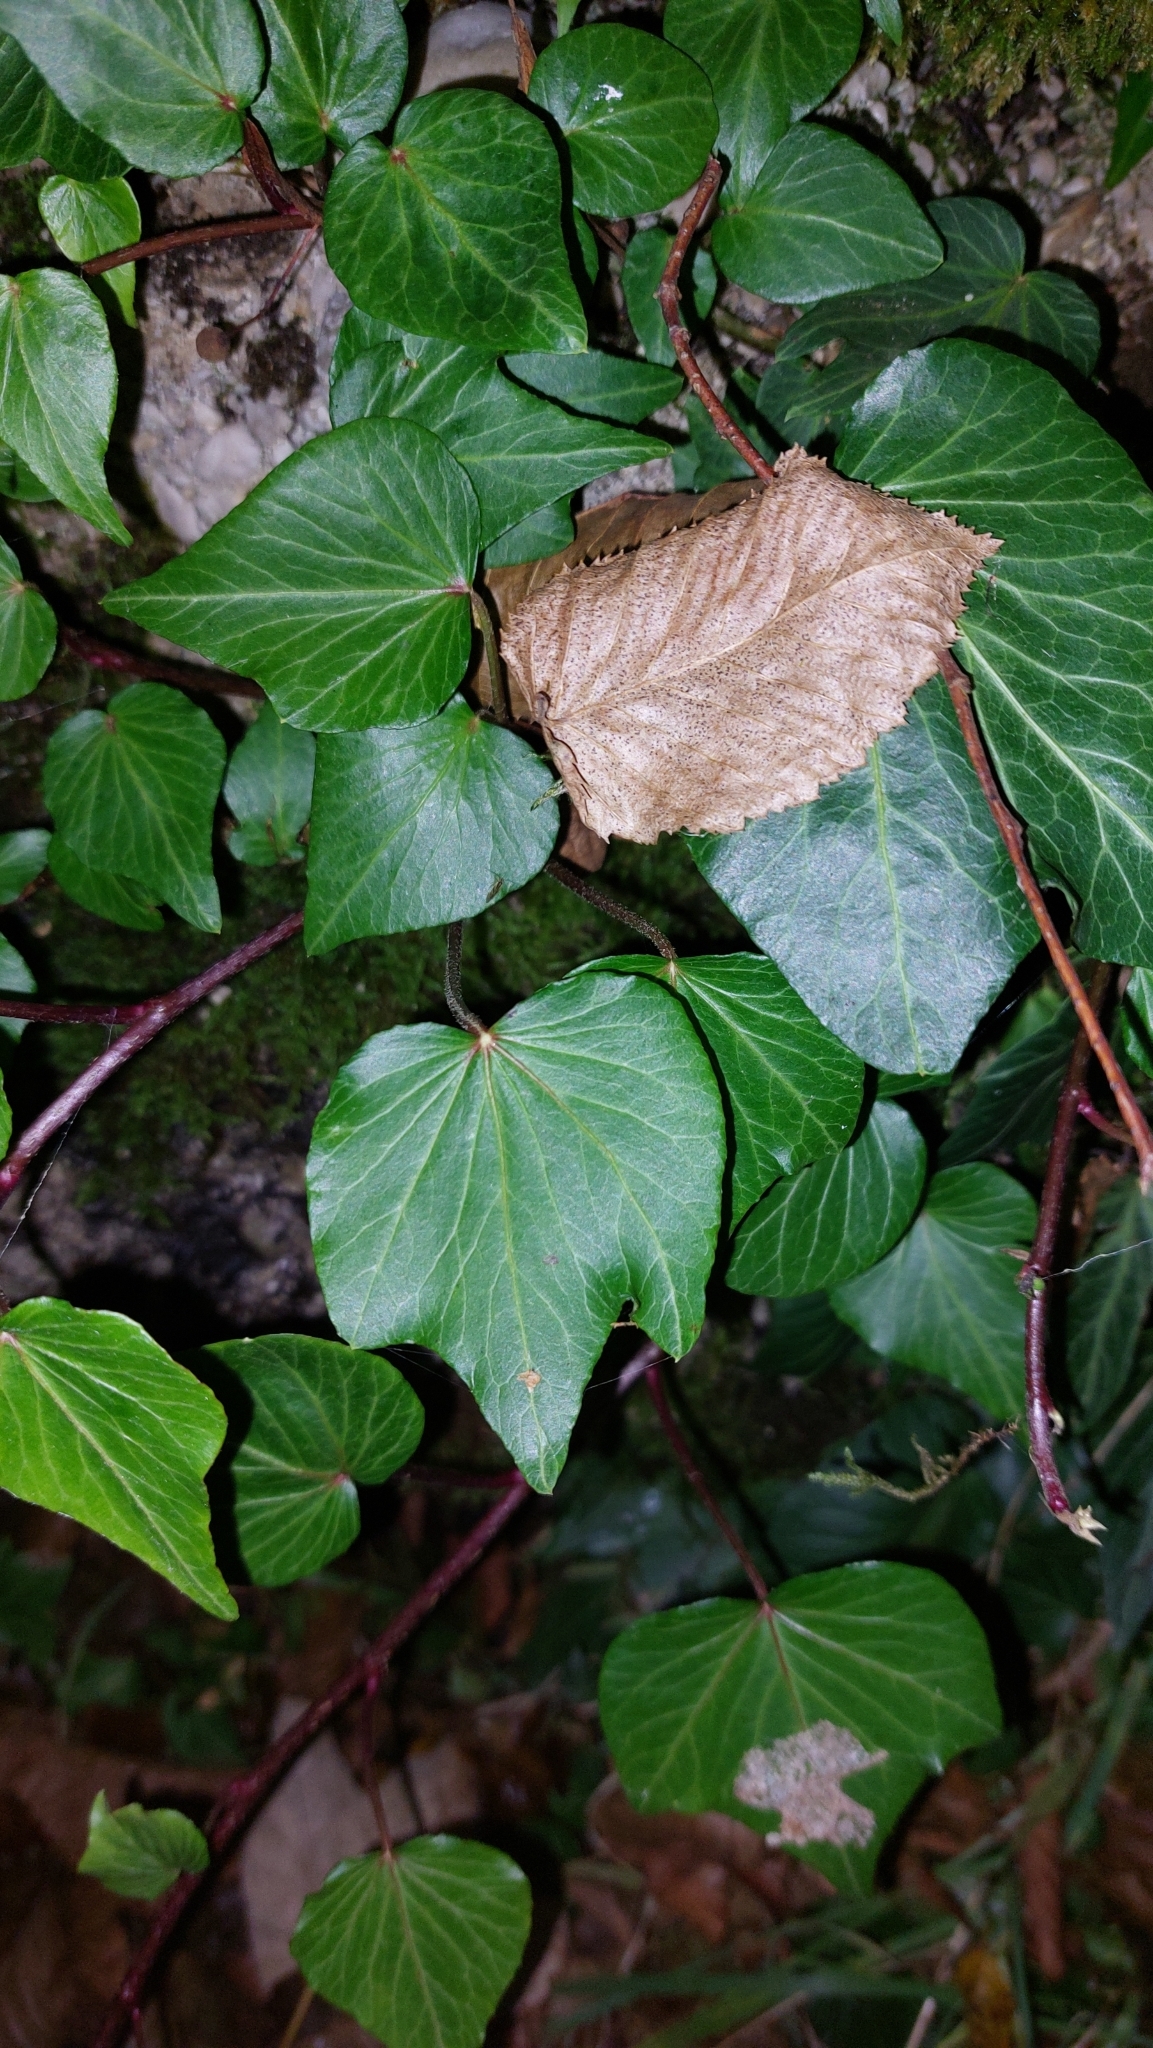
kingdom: Plantae
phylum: Tracheophyta
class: Magnoliopsida
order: Apiales
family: Araliaceae
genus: Hedera
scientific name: Hedera helix
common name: Ivy
